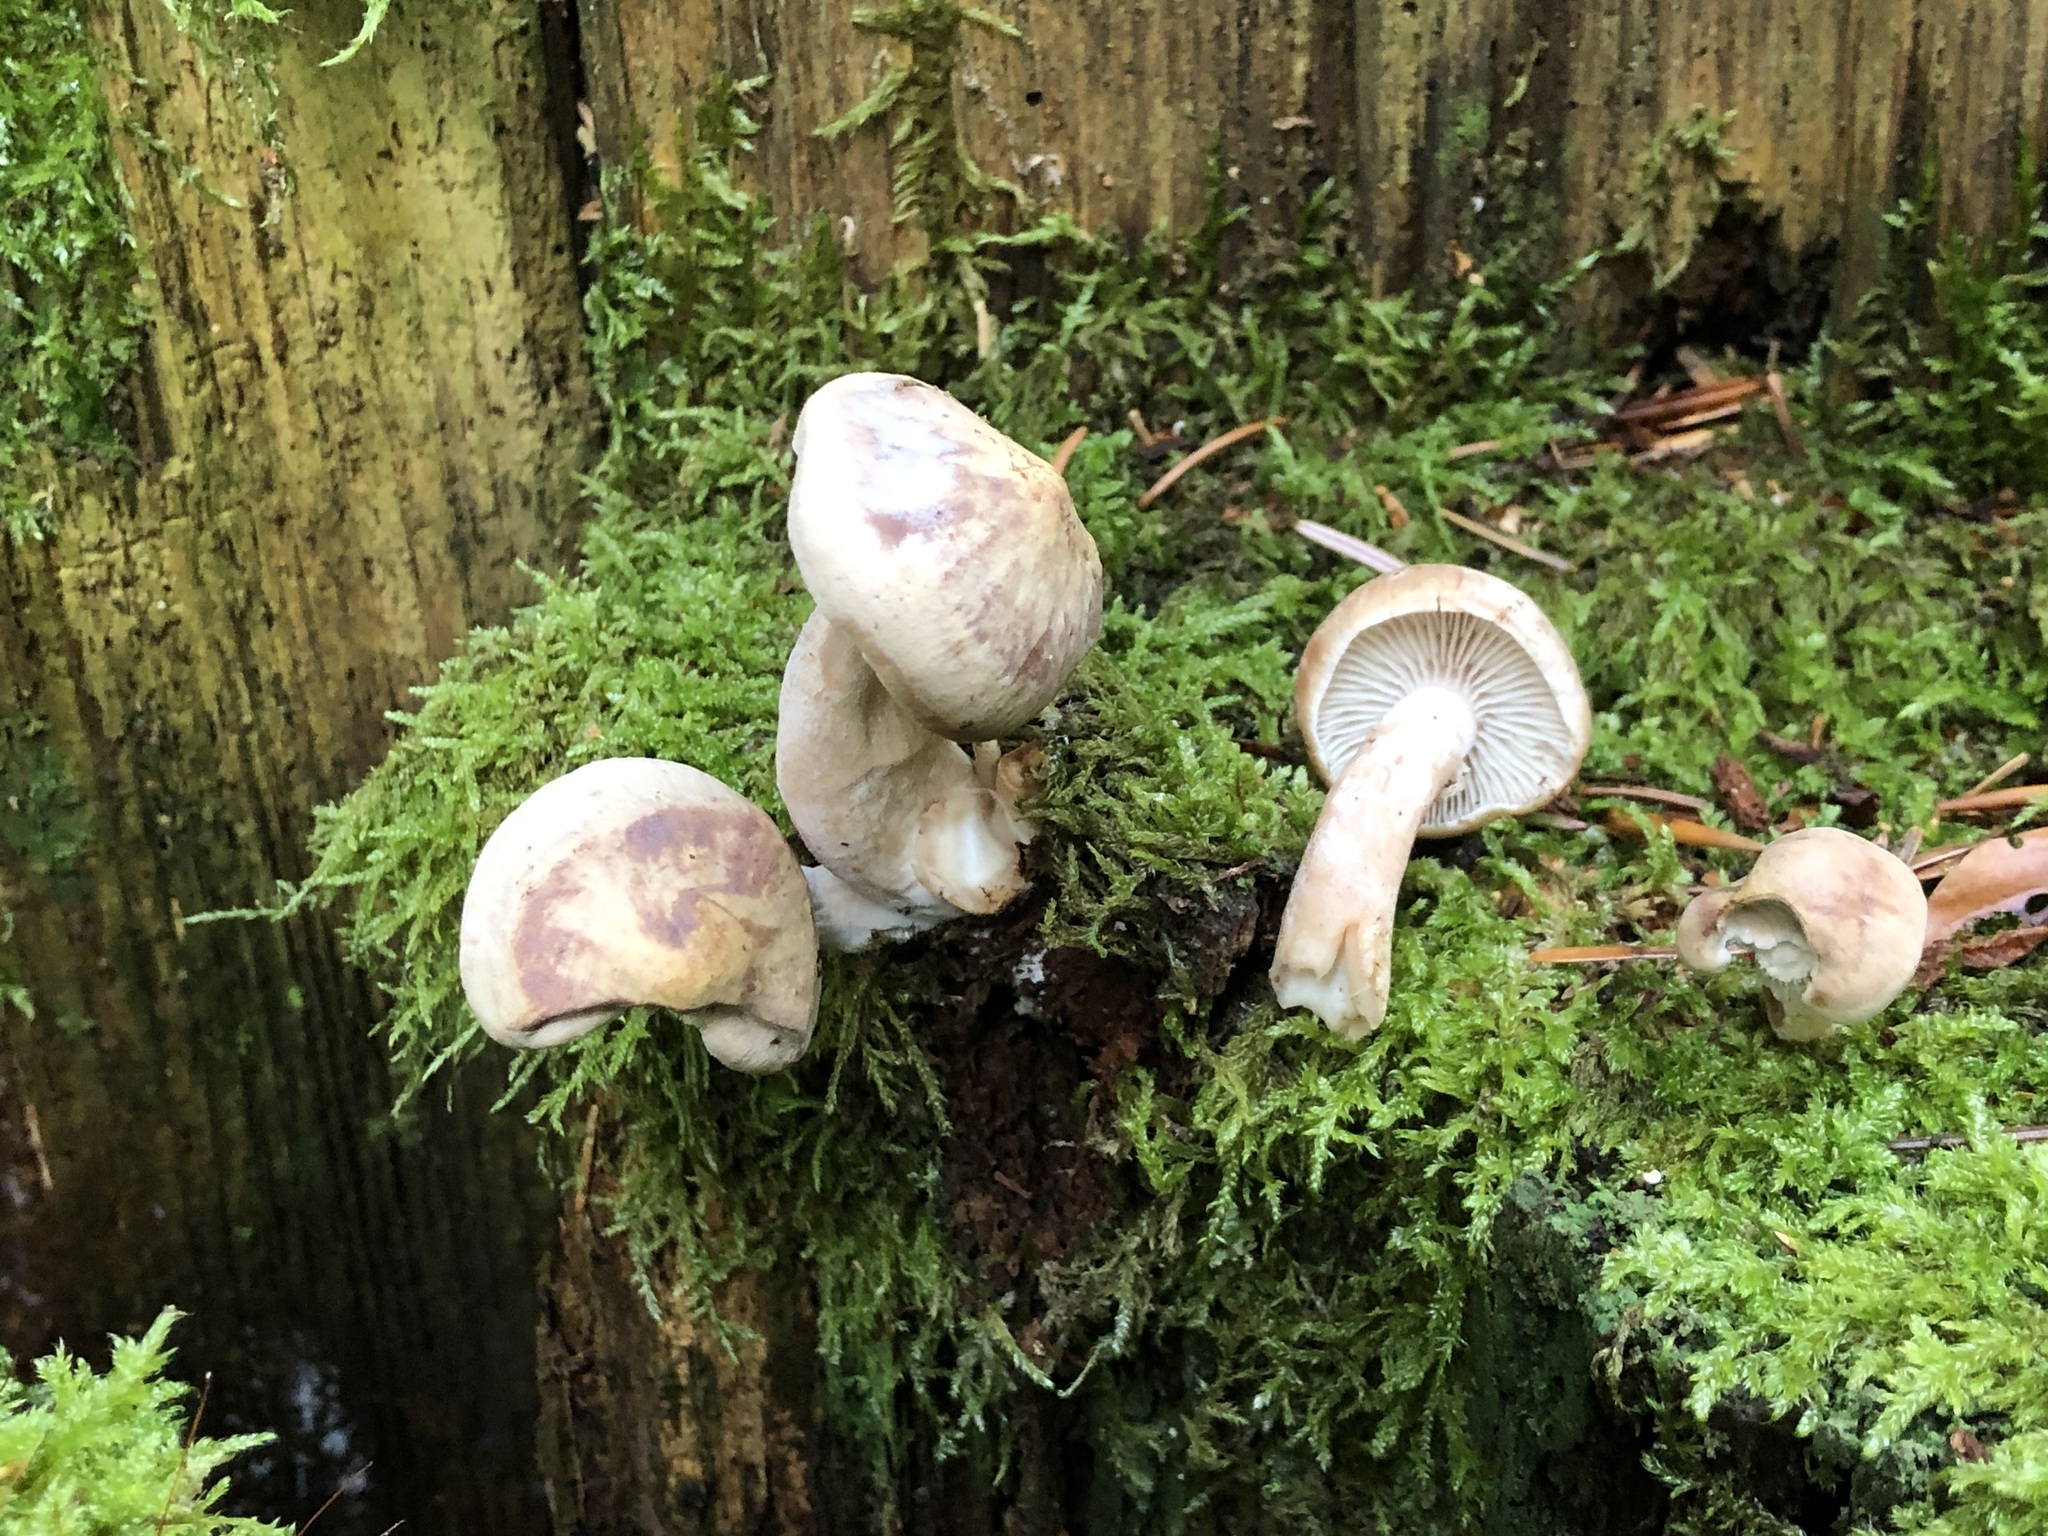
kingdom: Fungi
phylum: Basidiomycota
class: Agaricomycetes
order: Gloeophyllales
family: Gloeophyllaceae
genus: Neolentinus
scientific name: Neolentinus adhaerens
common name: Sticky sawgill
